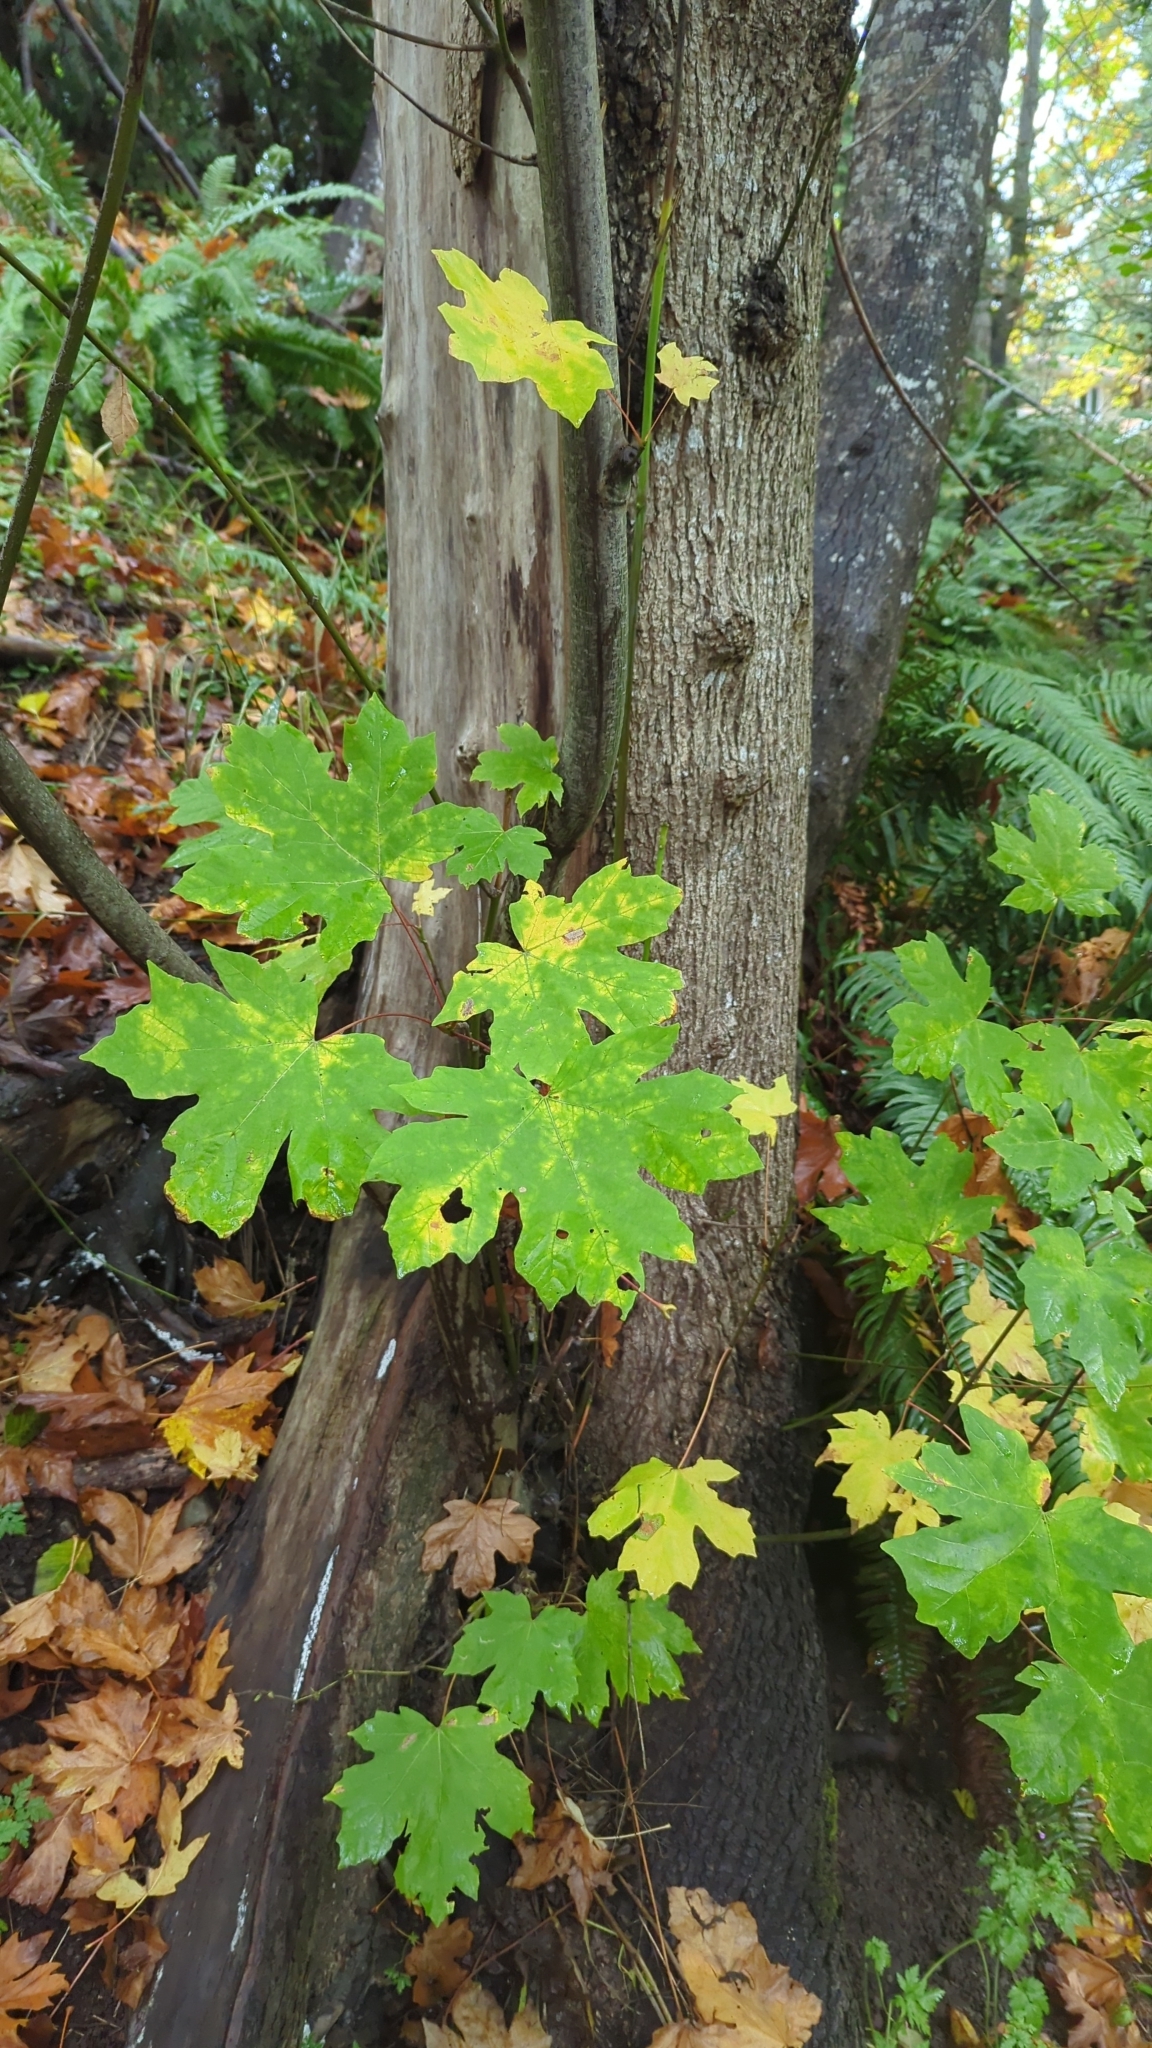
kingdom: Plantae
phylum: Tracheophyta
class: Magnoliopsida
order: Sapindales
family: Sapindaceae
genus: Acer
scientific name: Acer macrophyllum
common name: Oregon maple
